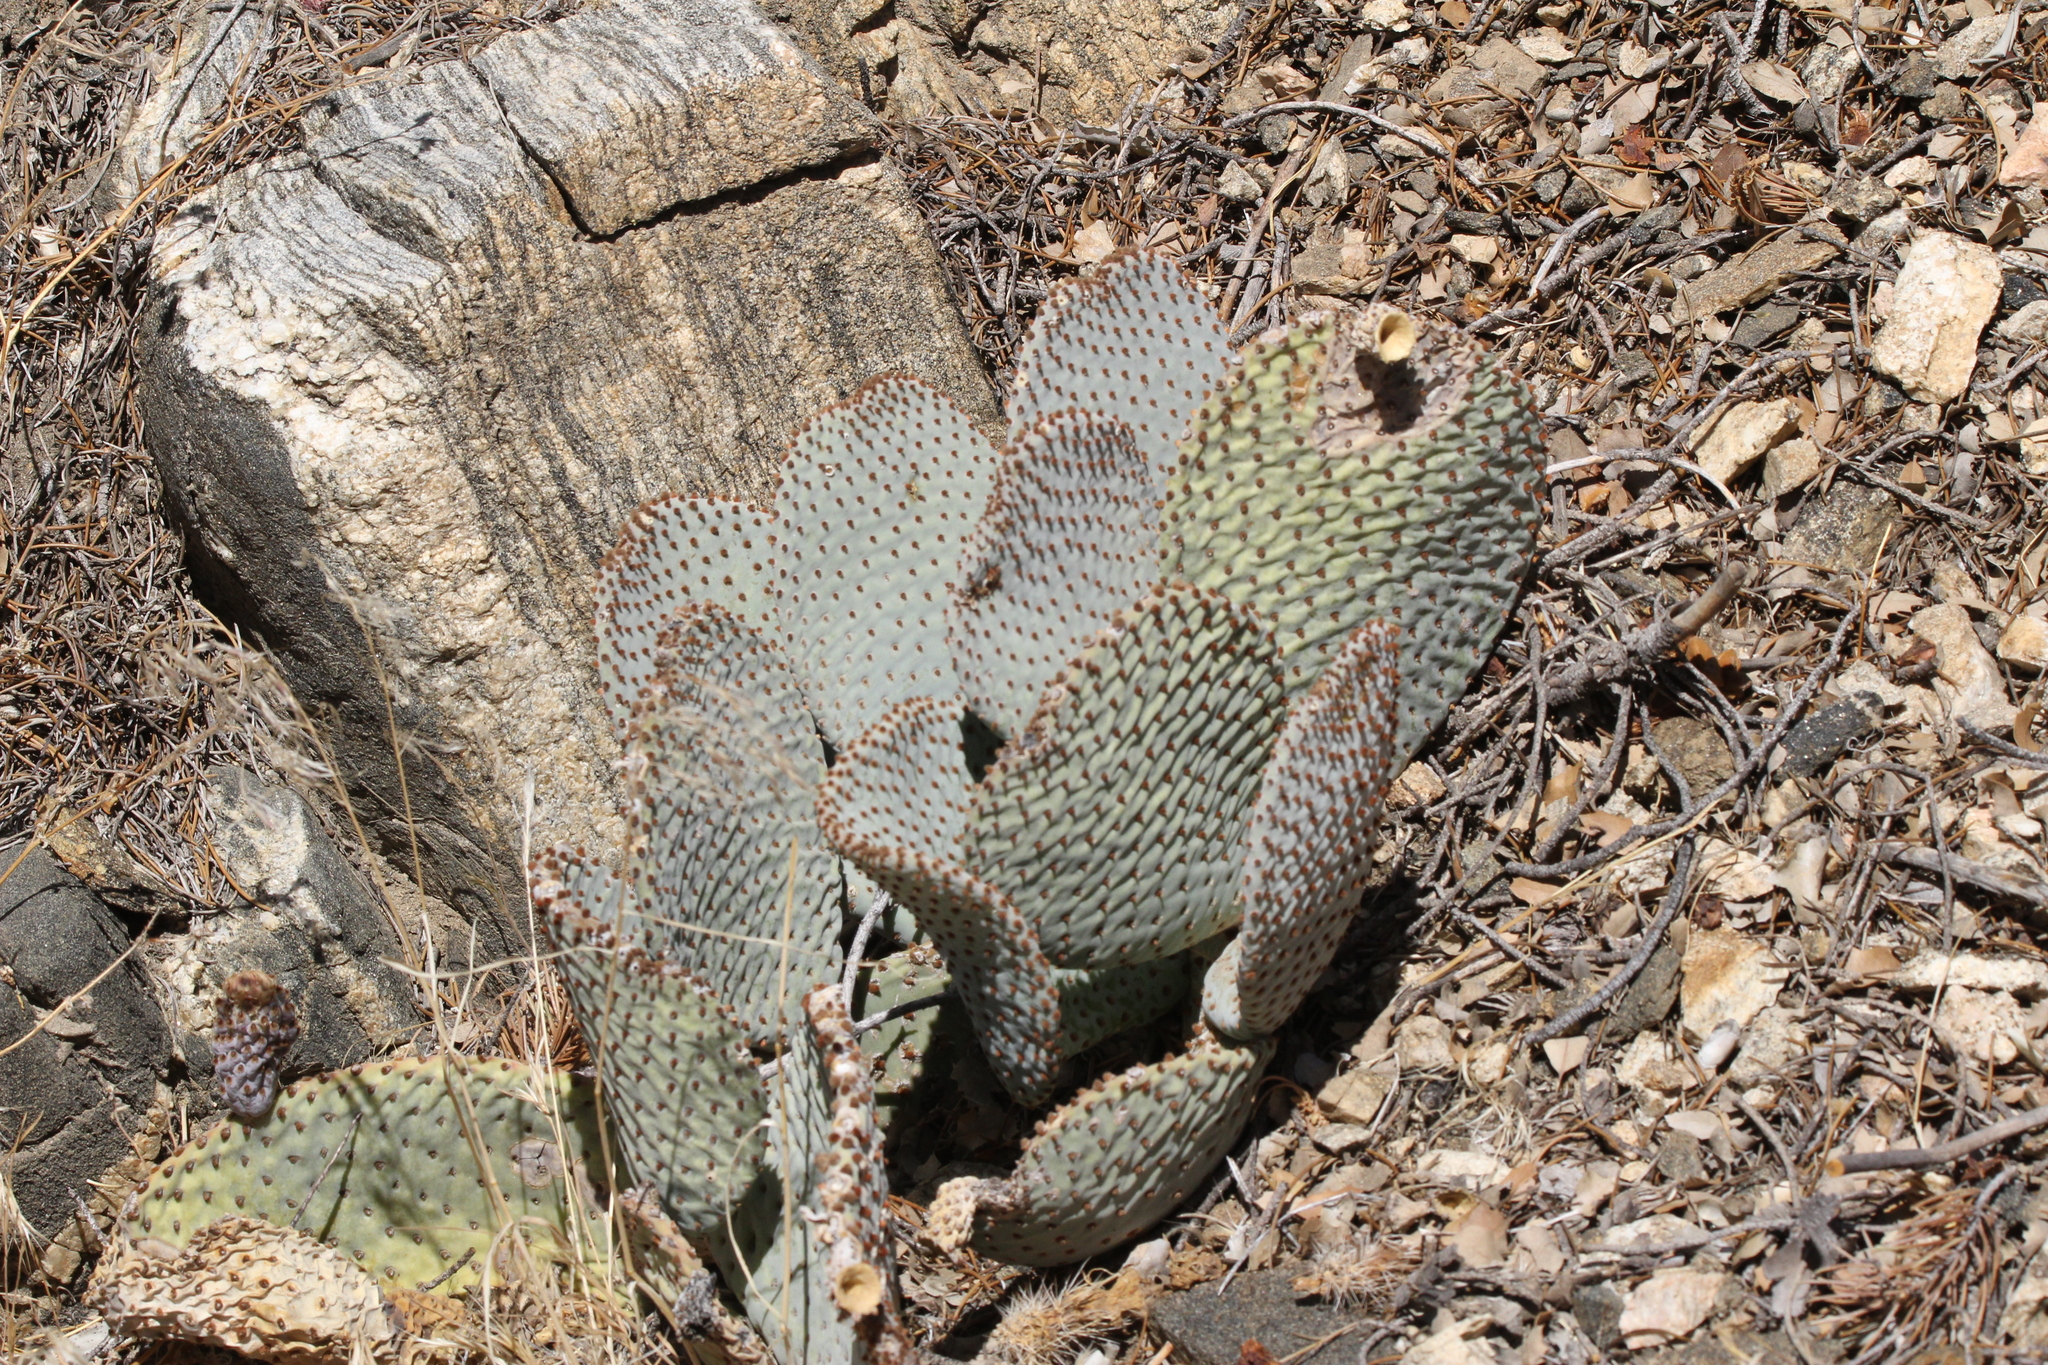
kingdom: Plantae
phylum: Tracheophyta
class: Magnoliopsida
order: Caryophyllales
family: Cactaceae
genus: Opuntia
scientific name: Opuntia basilaris
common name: Beavertail prickly-pear
